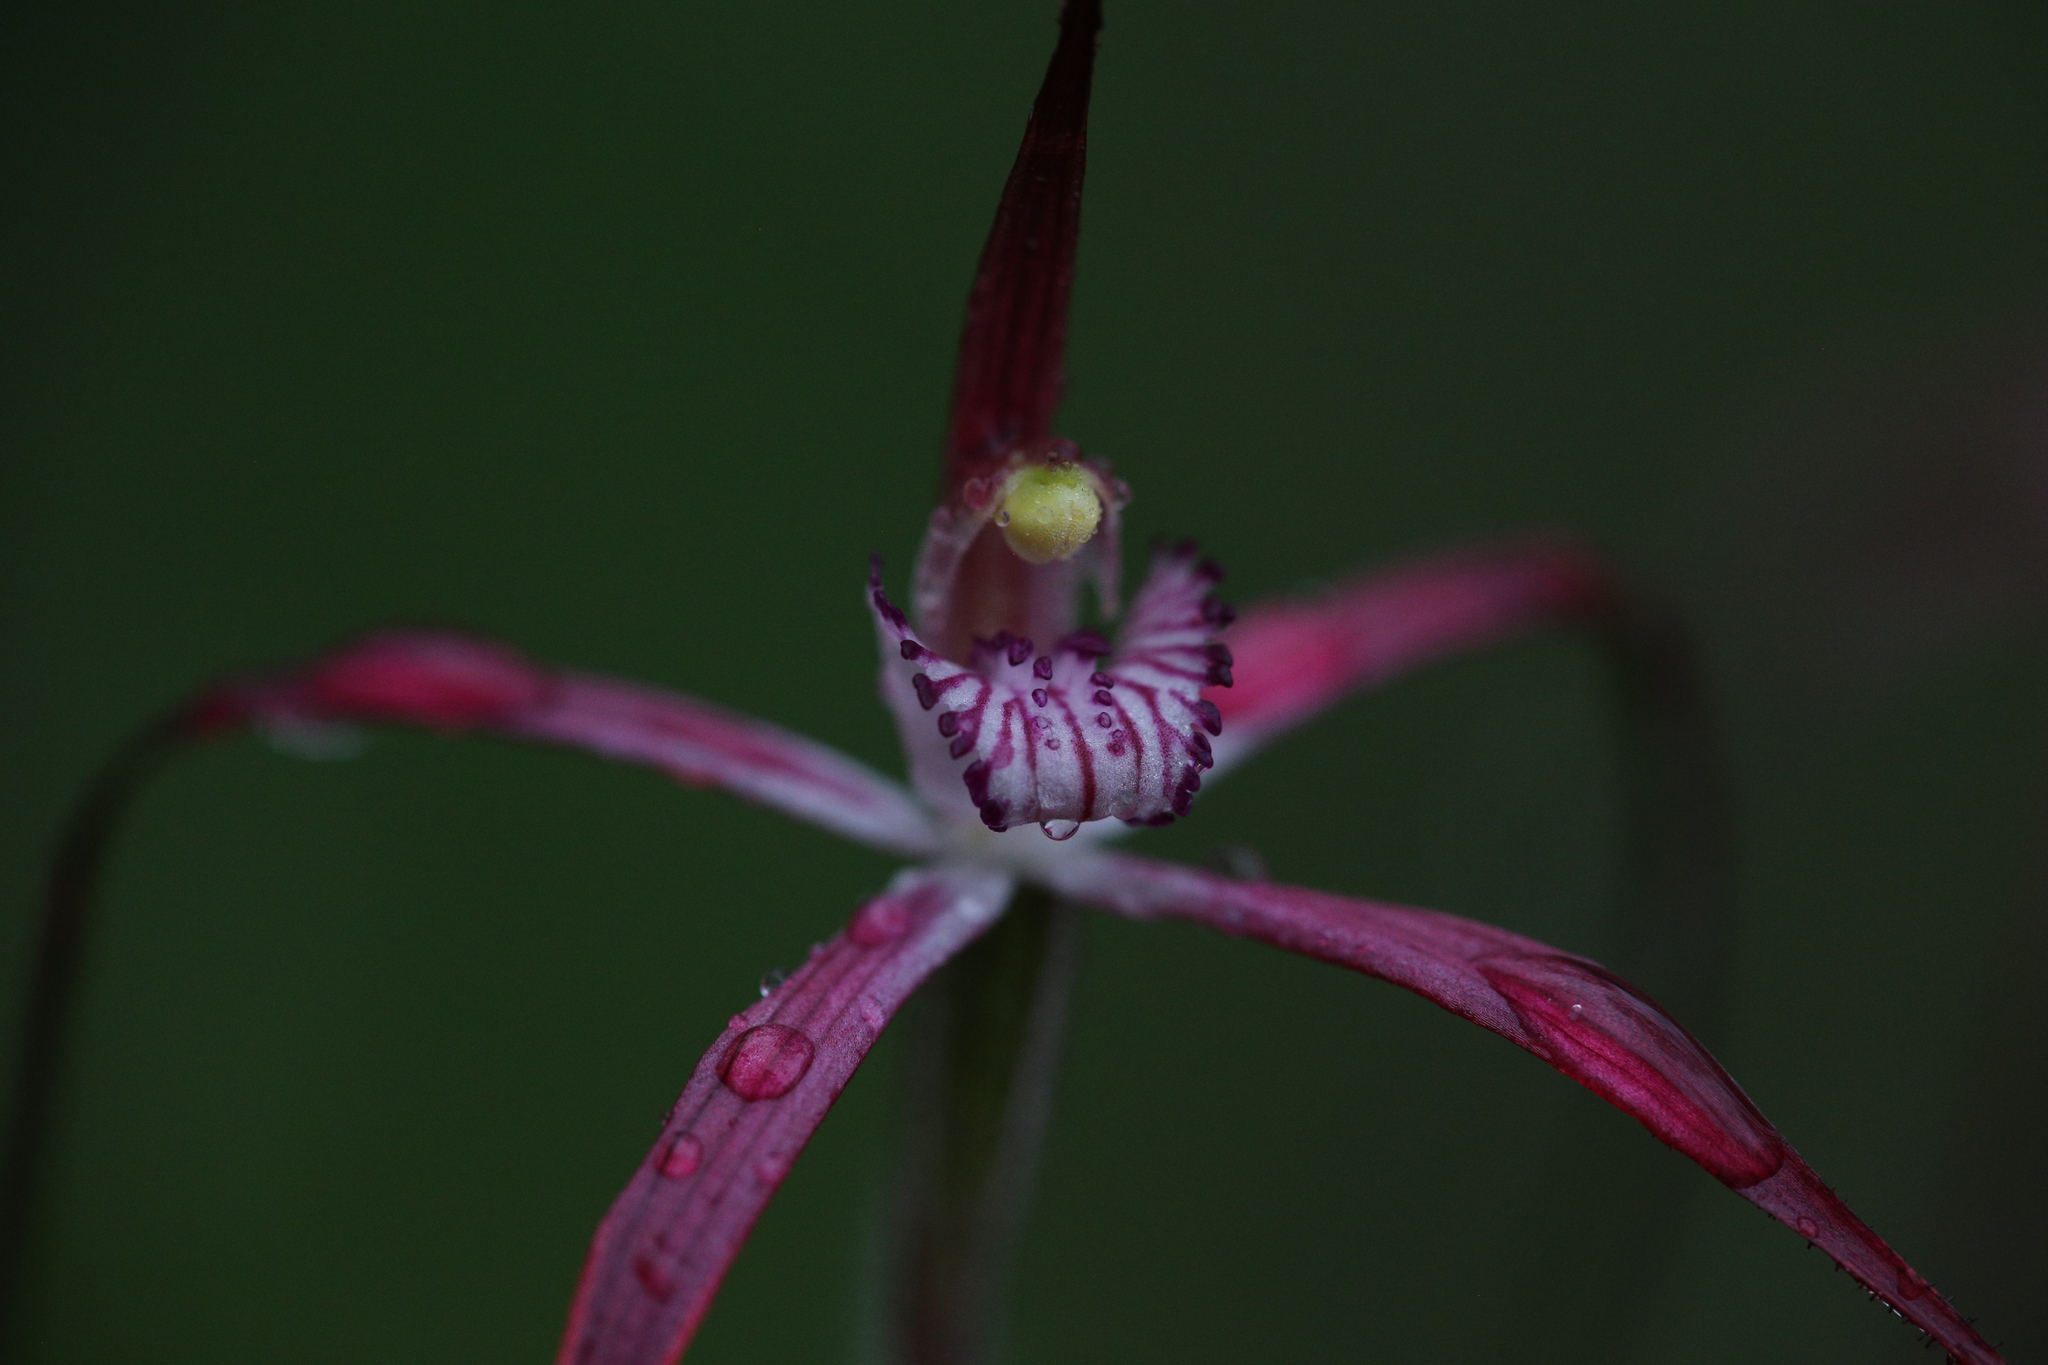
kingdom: Plantae
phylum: Tracheophyta
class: Liliopsida
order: Asparagales
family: Orchidaceae
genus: Caladenia
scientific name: Caladenia footeana
